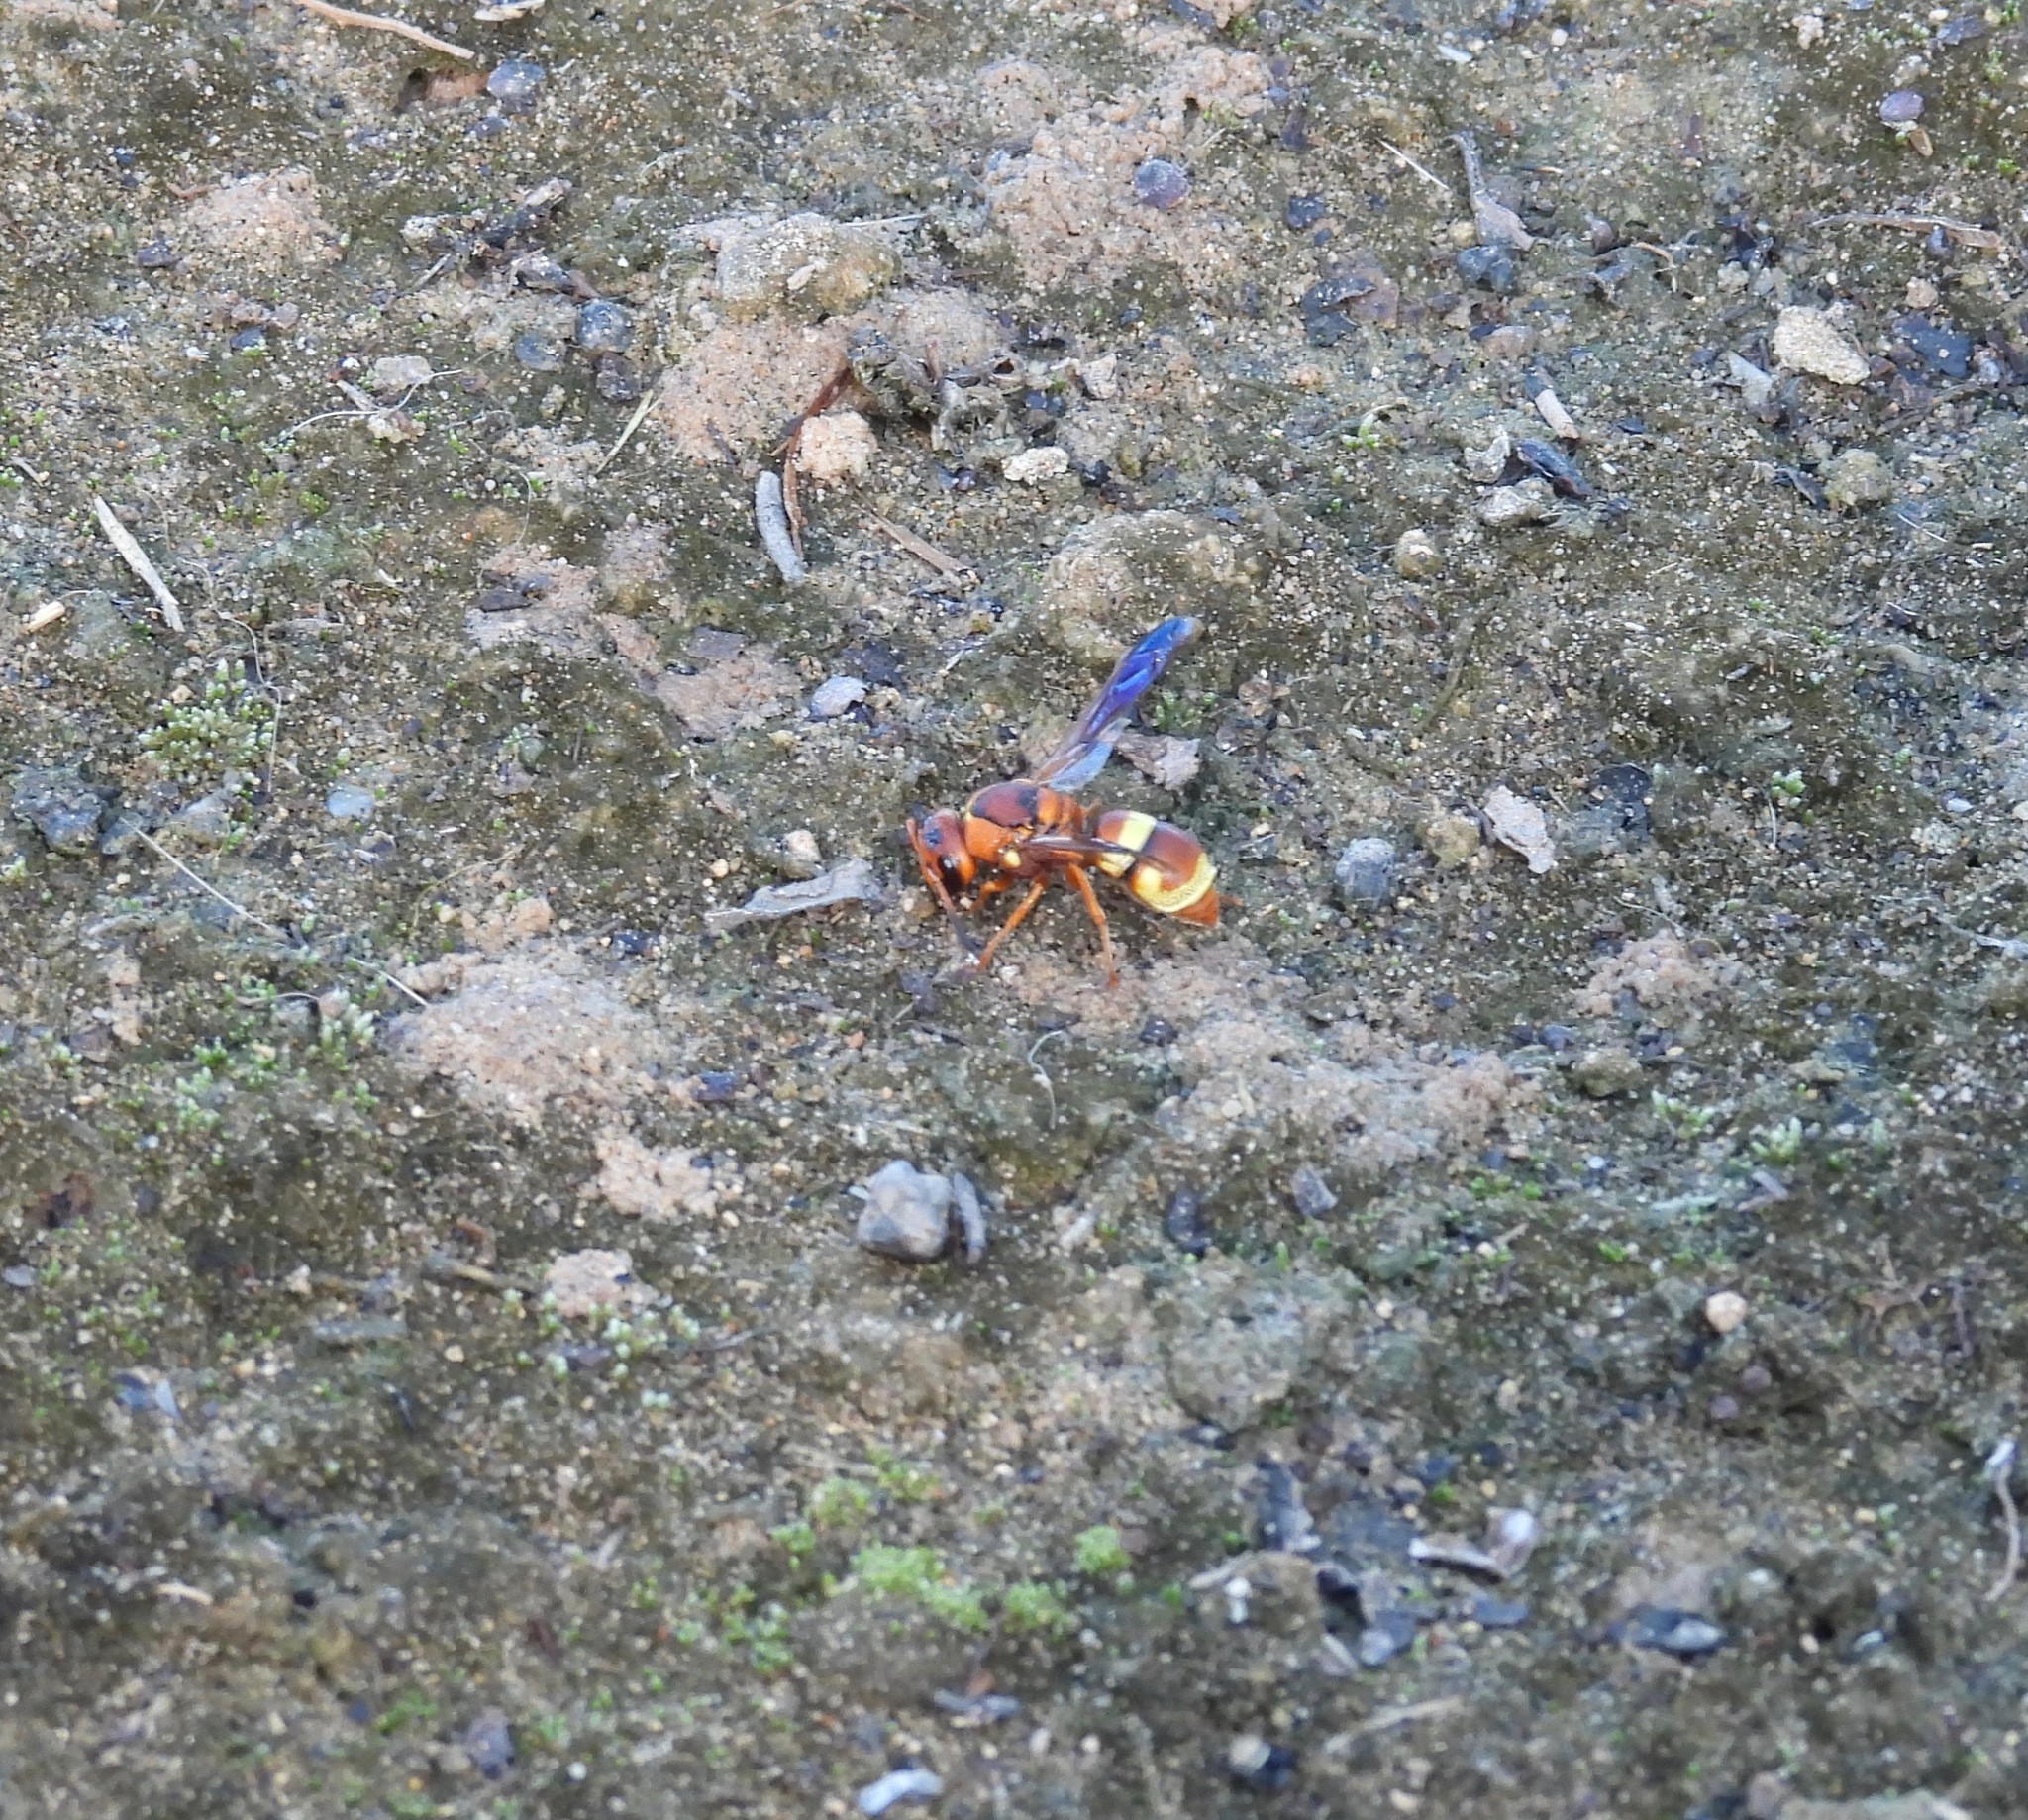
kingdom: Animalia
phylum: Arthropoda
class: Insecta
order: Hymenoptera
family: Eumenidae
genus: Euodynerus
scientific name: Euodynerus
